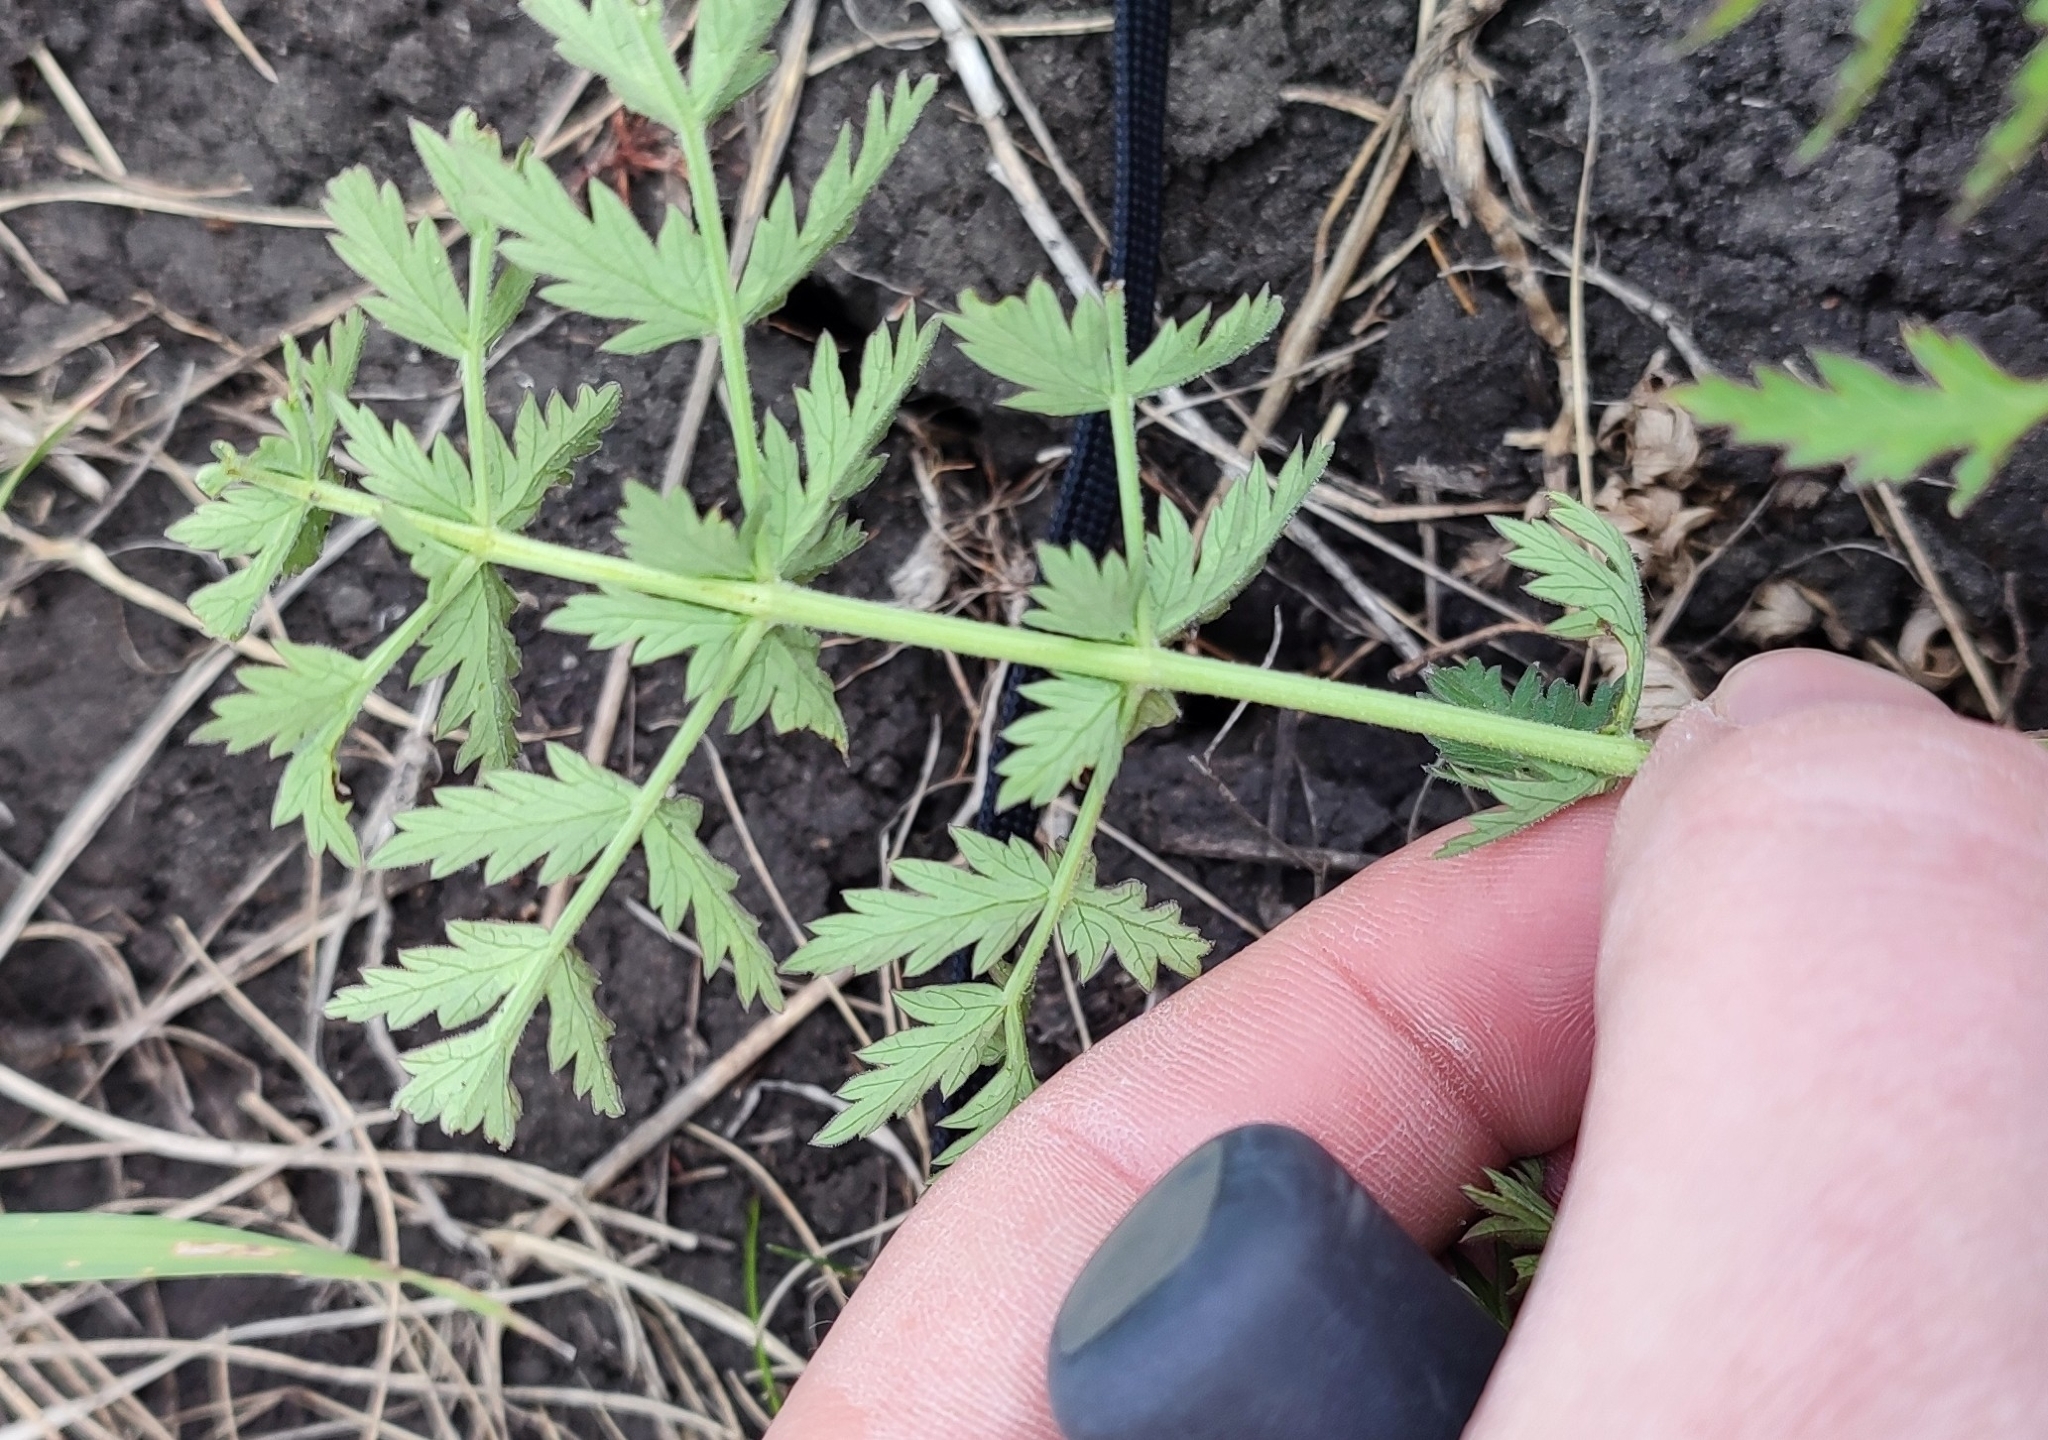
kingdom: Plantae
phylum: Tracheophyta
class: Magnoliopsida
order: Apiales
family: Apiaceae
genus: Seseli
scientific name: Seseli libanotis
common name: Mooncarrot
